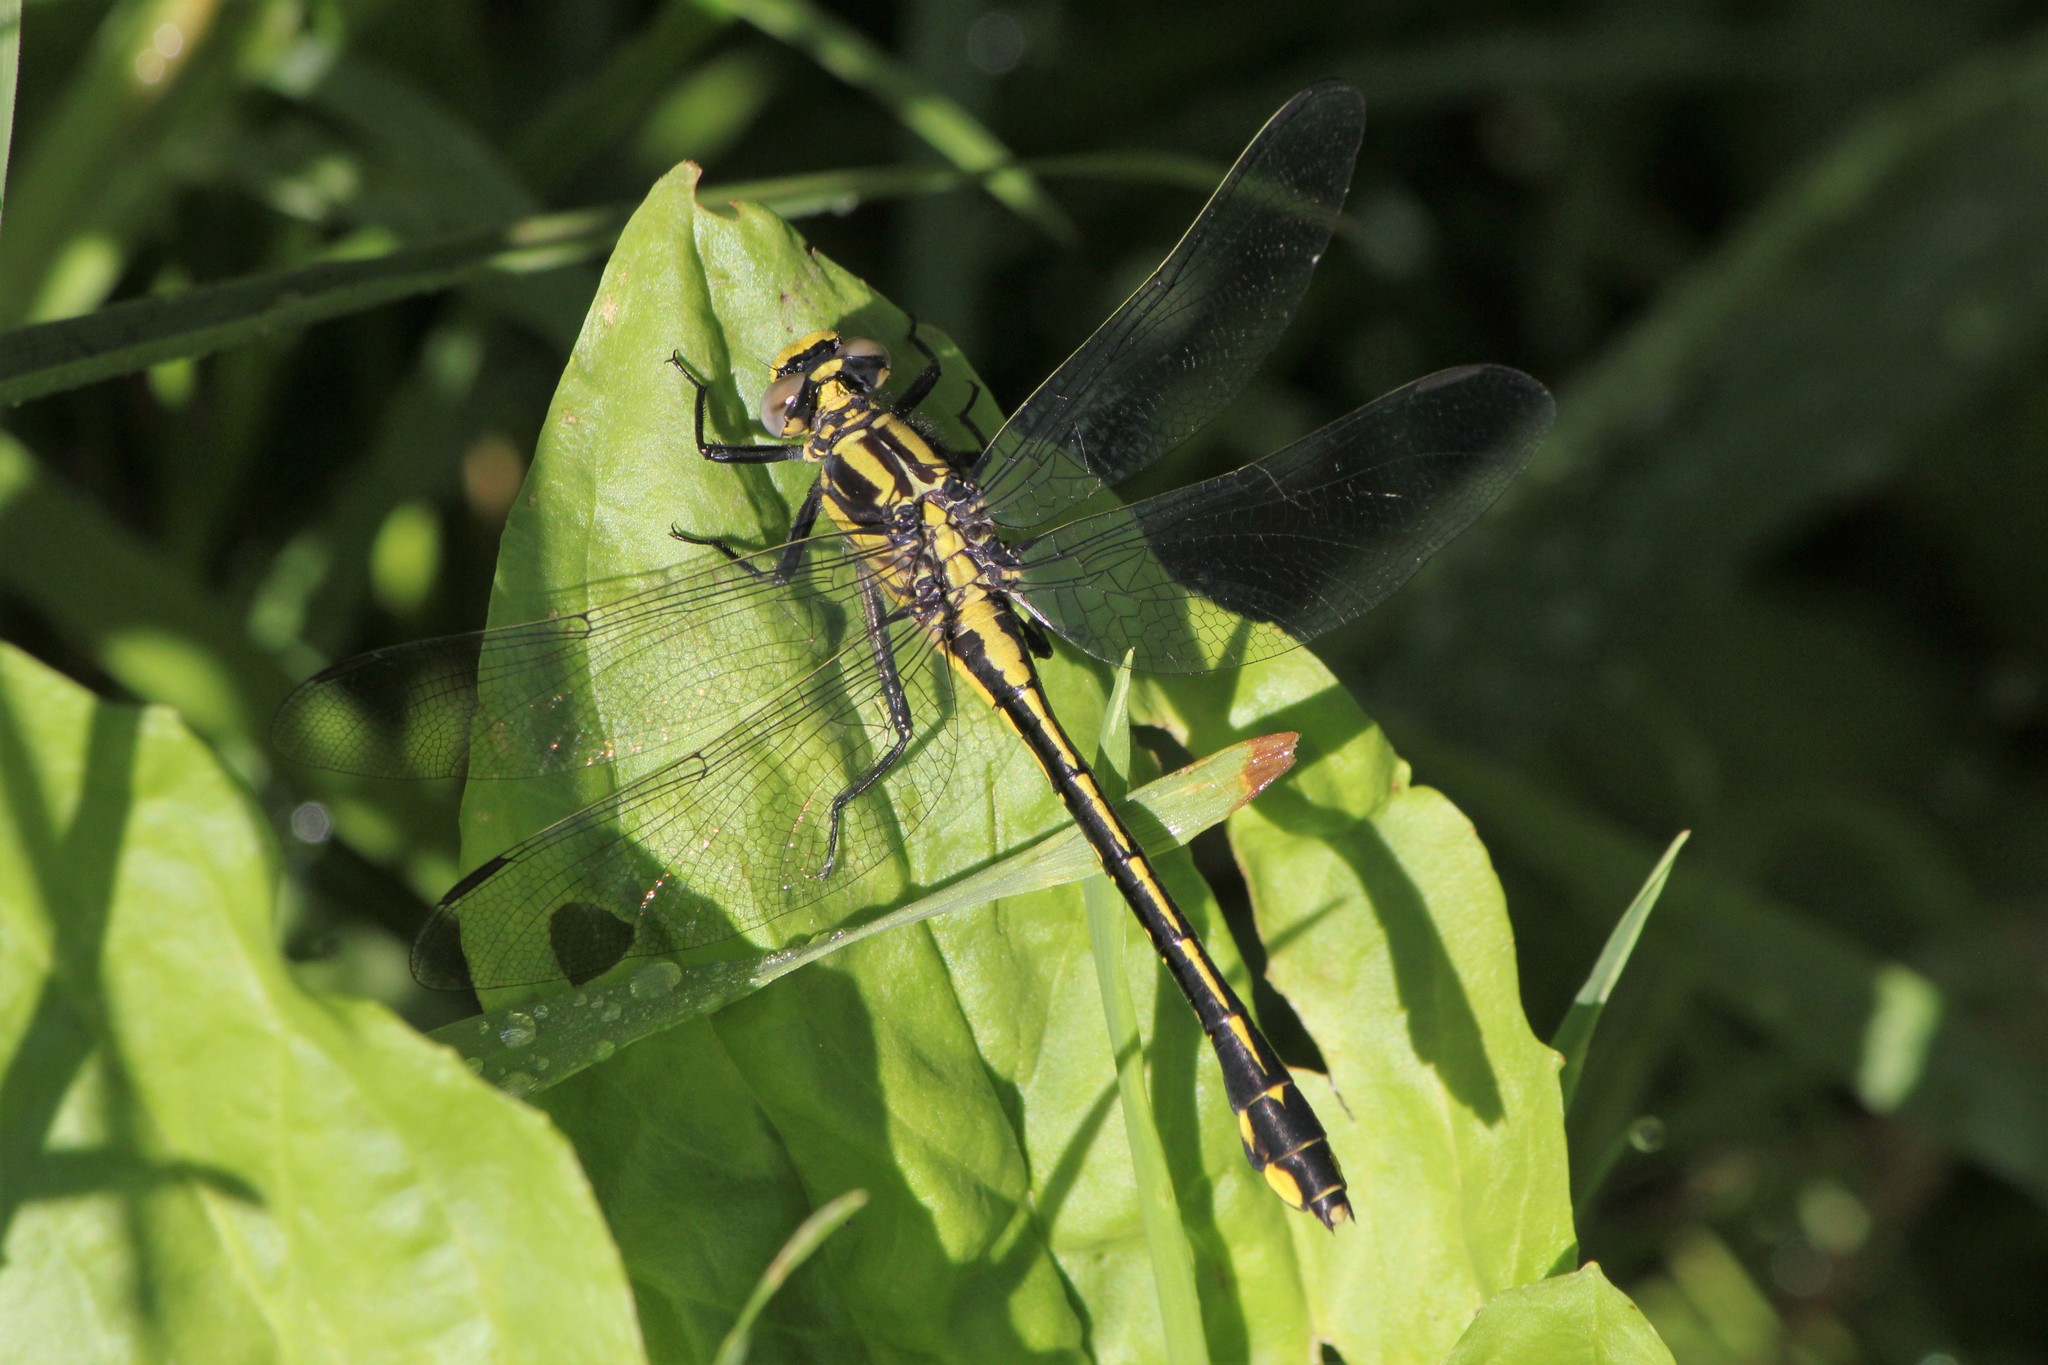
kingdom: Animalia
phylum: Arthropoda
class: Insecta
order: Odonata
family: Gomphidae
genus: Gomphurus
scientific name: Gomphurus fraternus
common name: Midland clubtail
